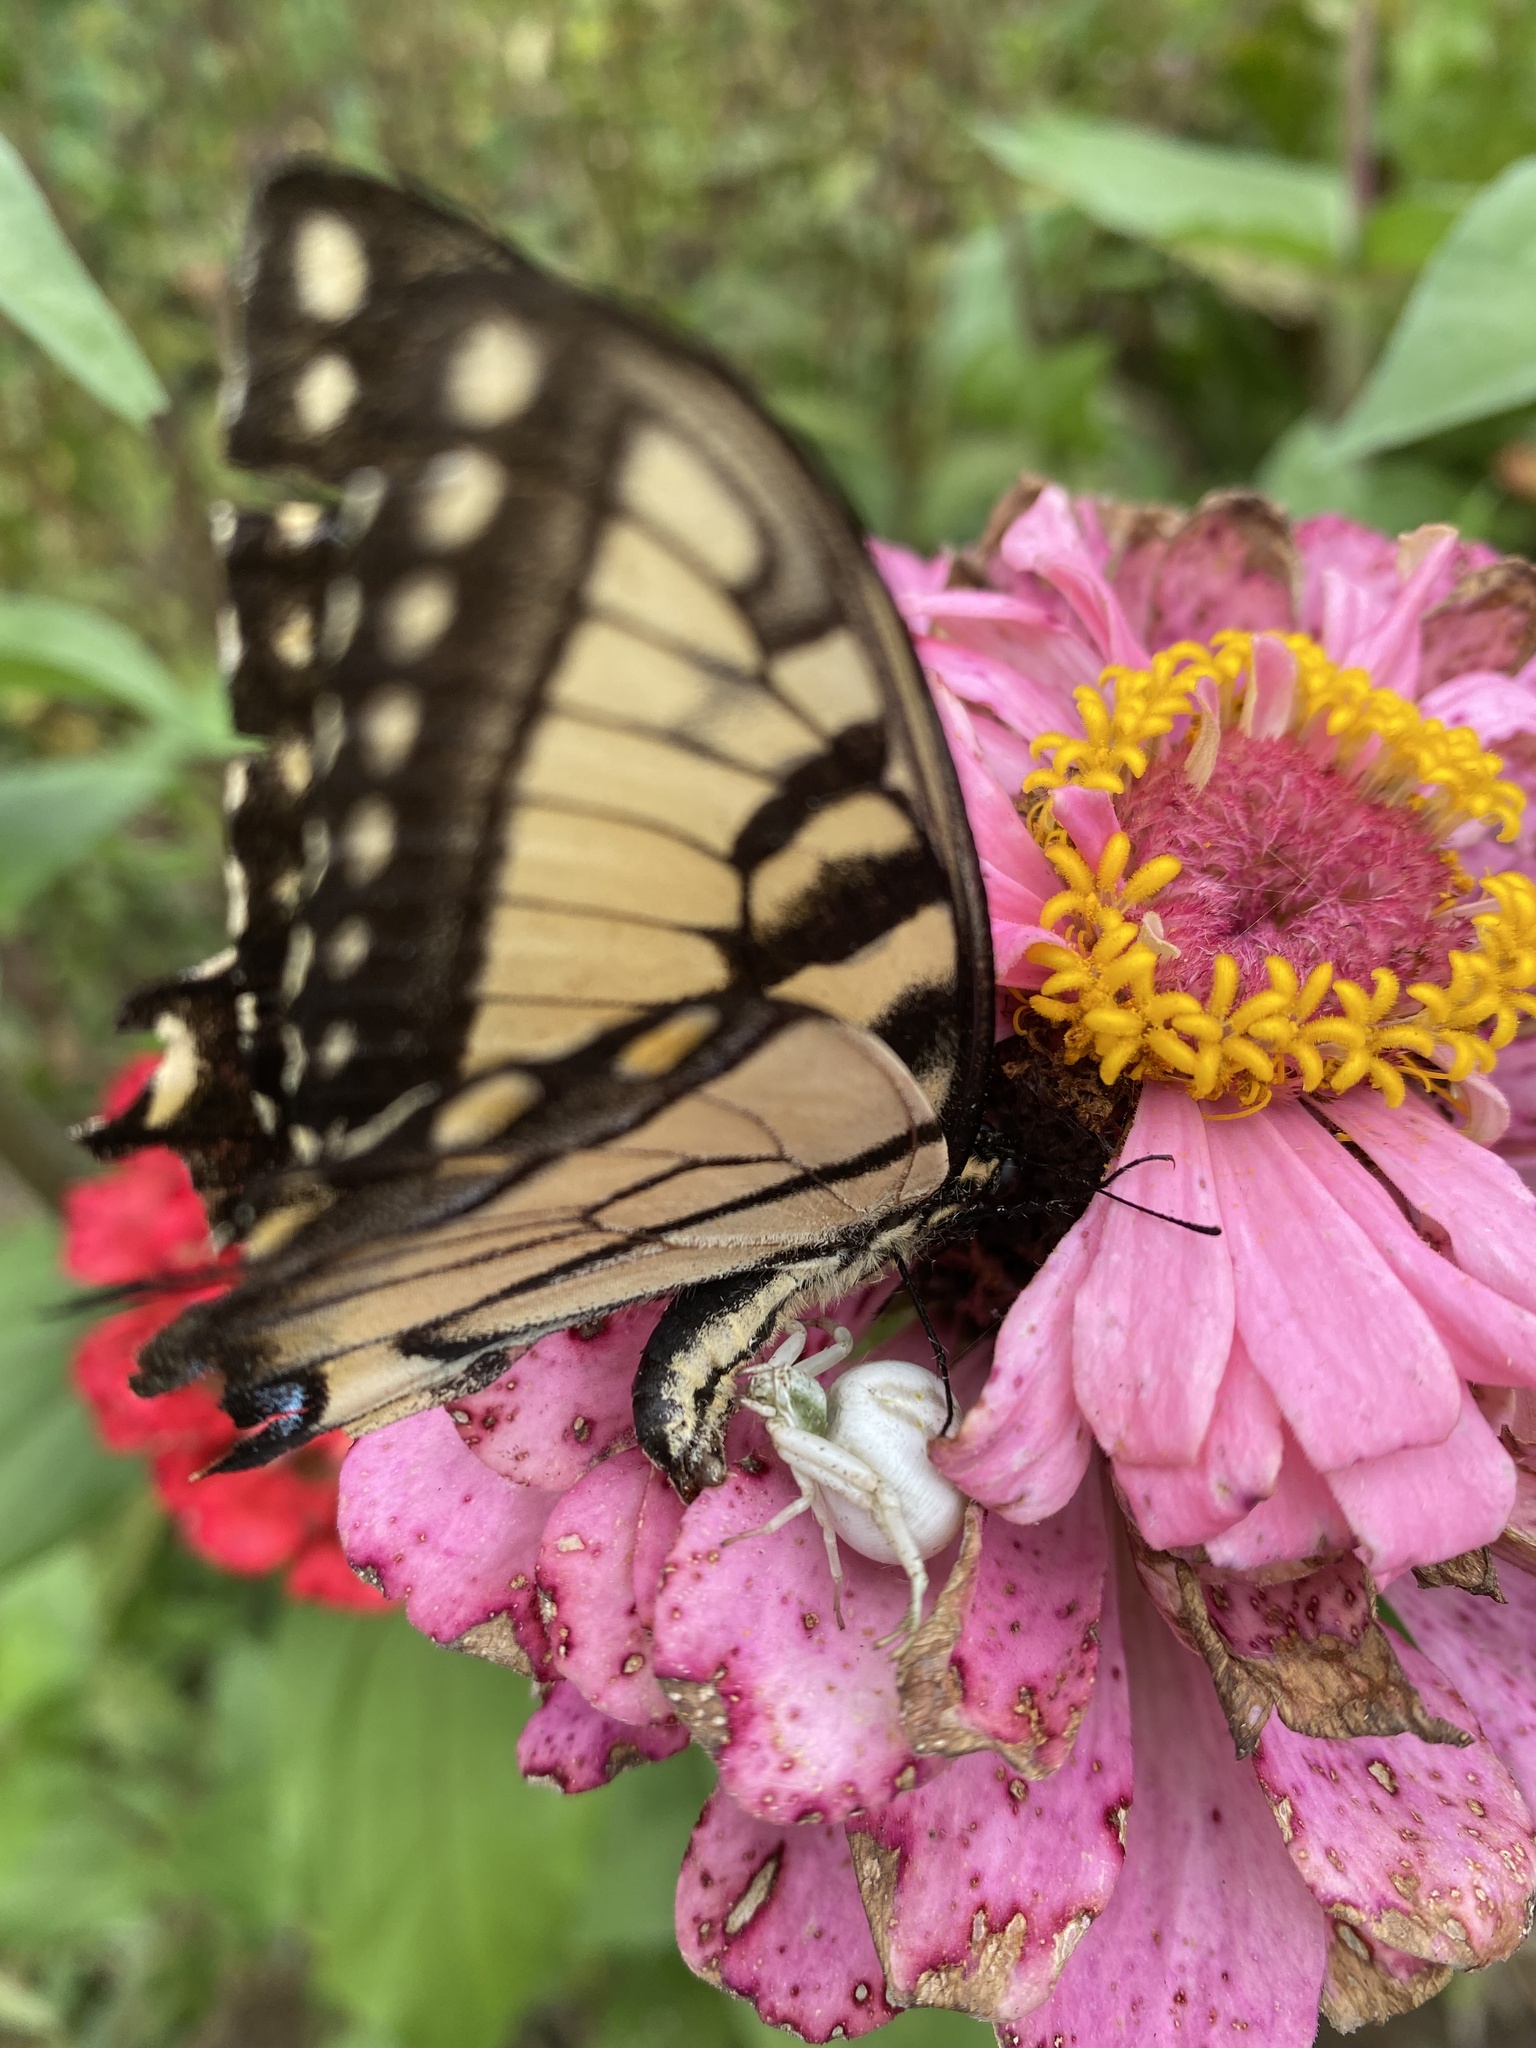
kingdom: Animalia
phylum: Arthropoda
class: Insecta
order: Lepidoptera
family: Papilionidae
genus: Papilio
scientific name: Papilio glaucus
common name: Tiger swallowtail
